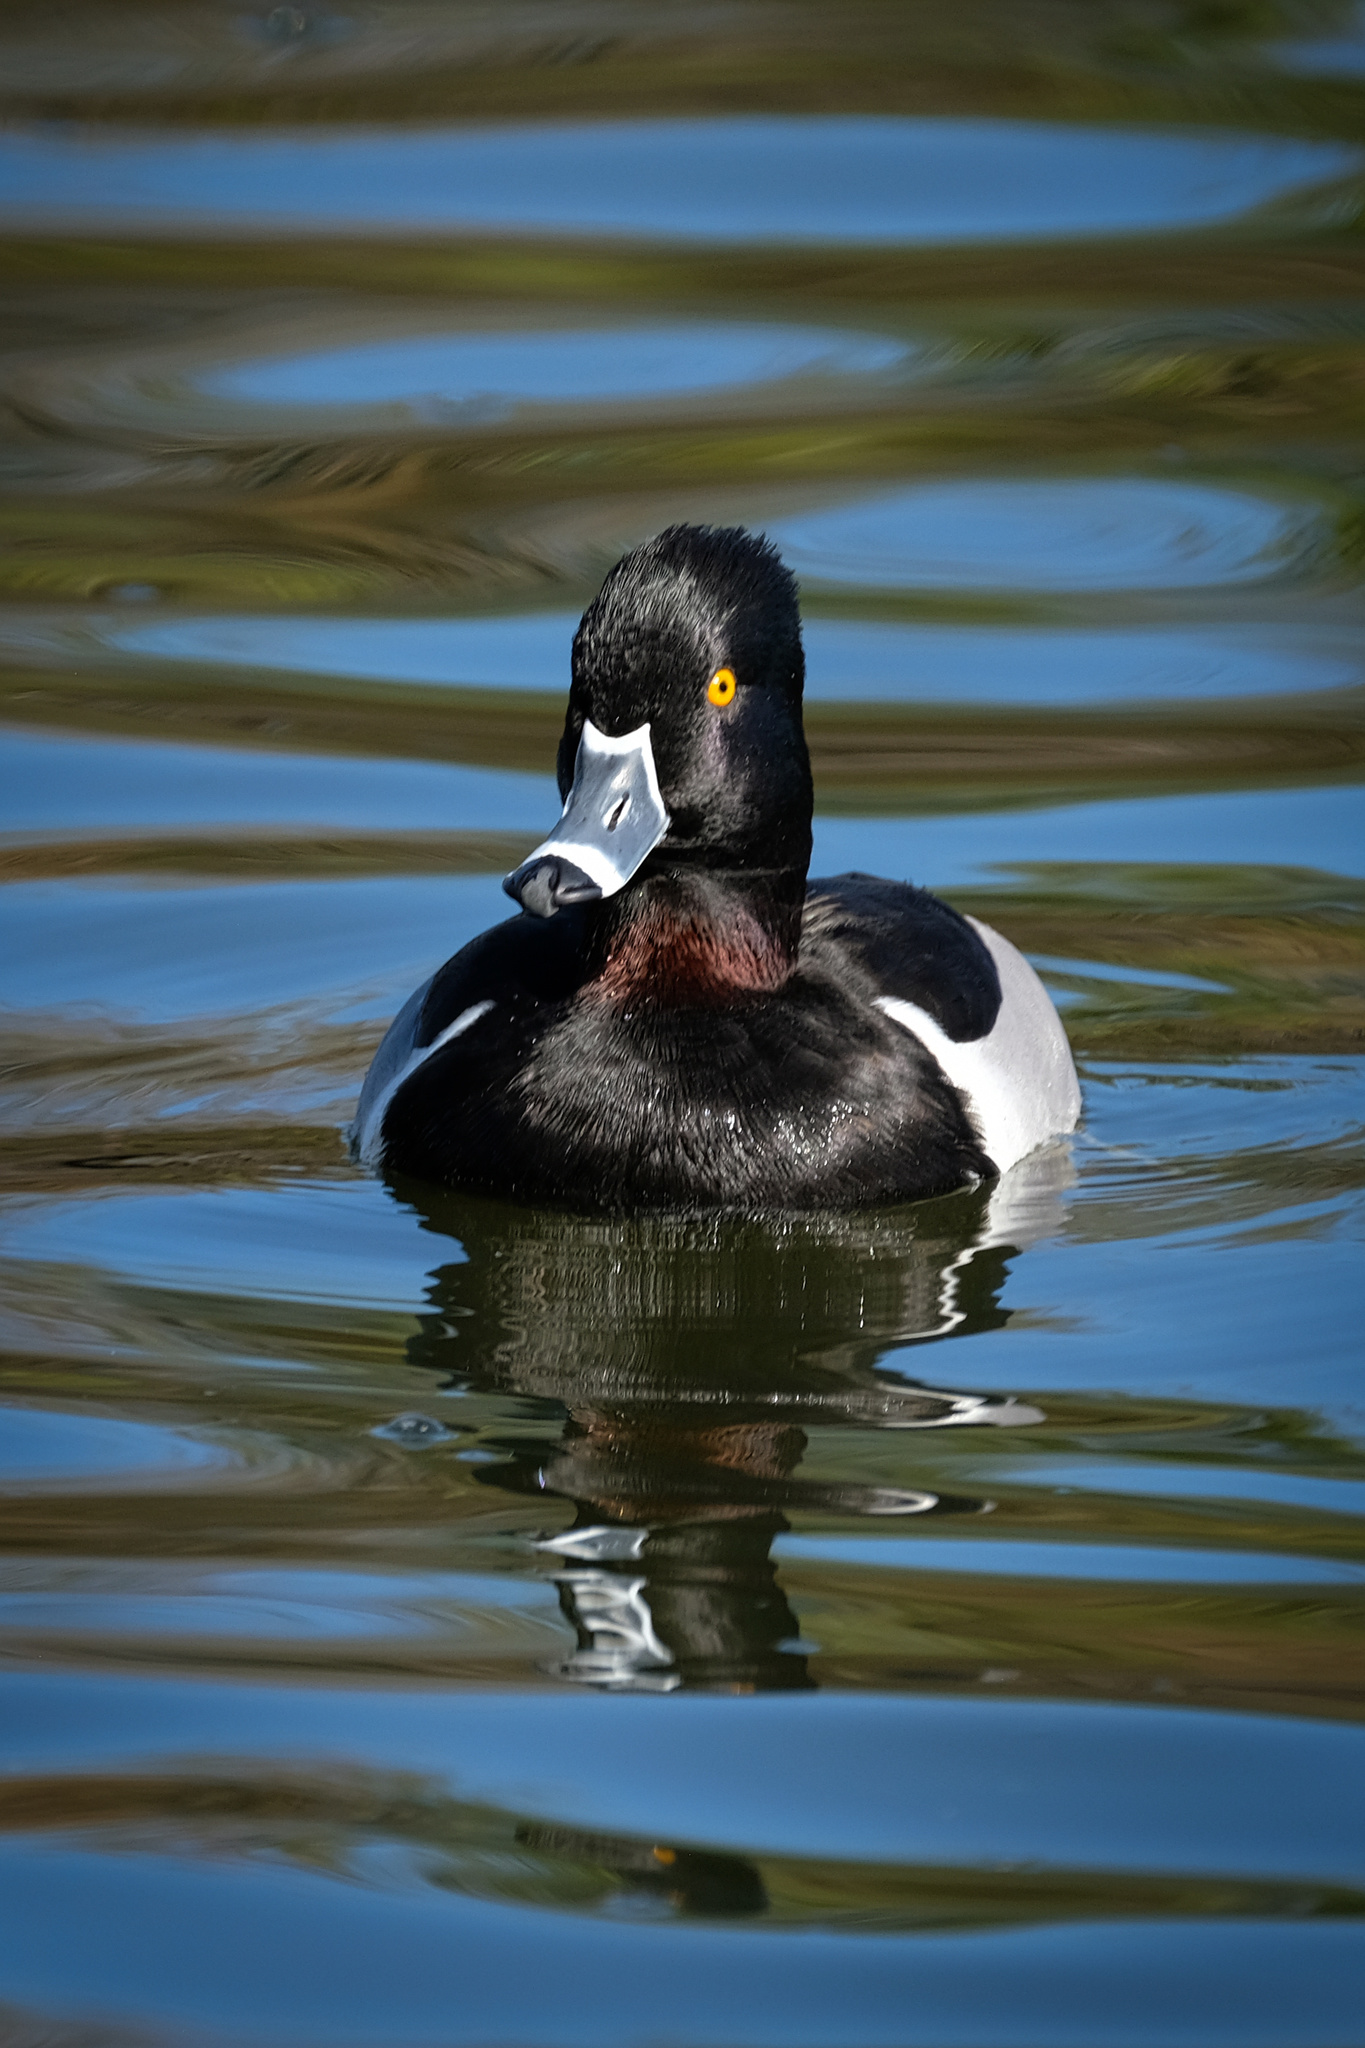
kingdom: Animalia
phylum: Chordata
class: Aves
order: Anseriformes
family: Anatidae
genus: Aythya
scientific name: Aythya collaris
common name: Ring-necked duck
